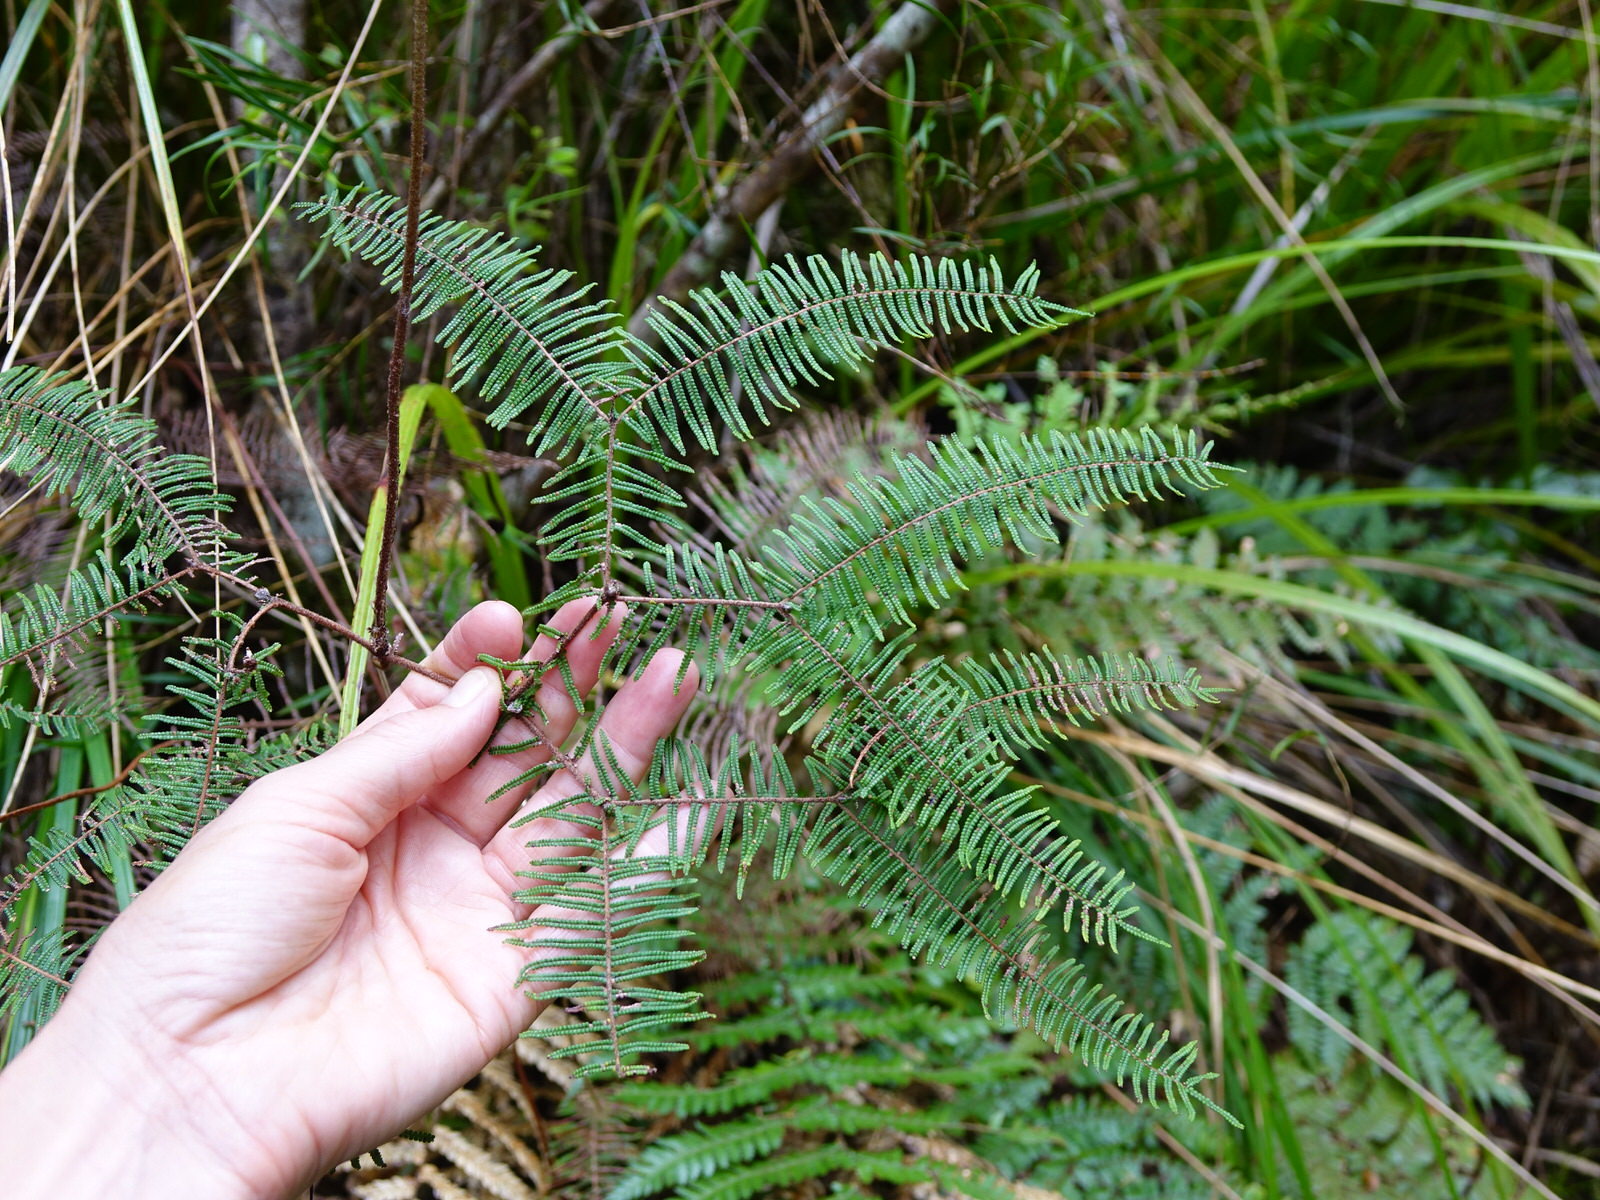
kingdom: Plantae
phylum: Tracheophyta
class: Polypodiopsida
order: Gleicheniales
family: Gleicheniaceae
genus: Gleichenia
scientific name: Gleichenia dicarpa
